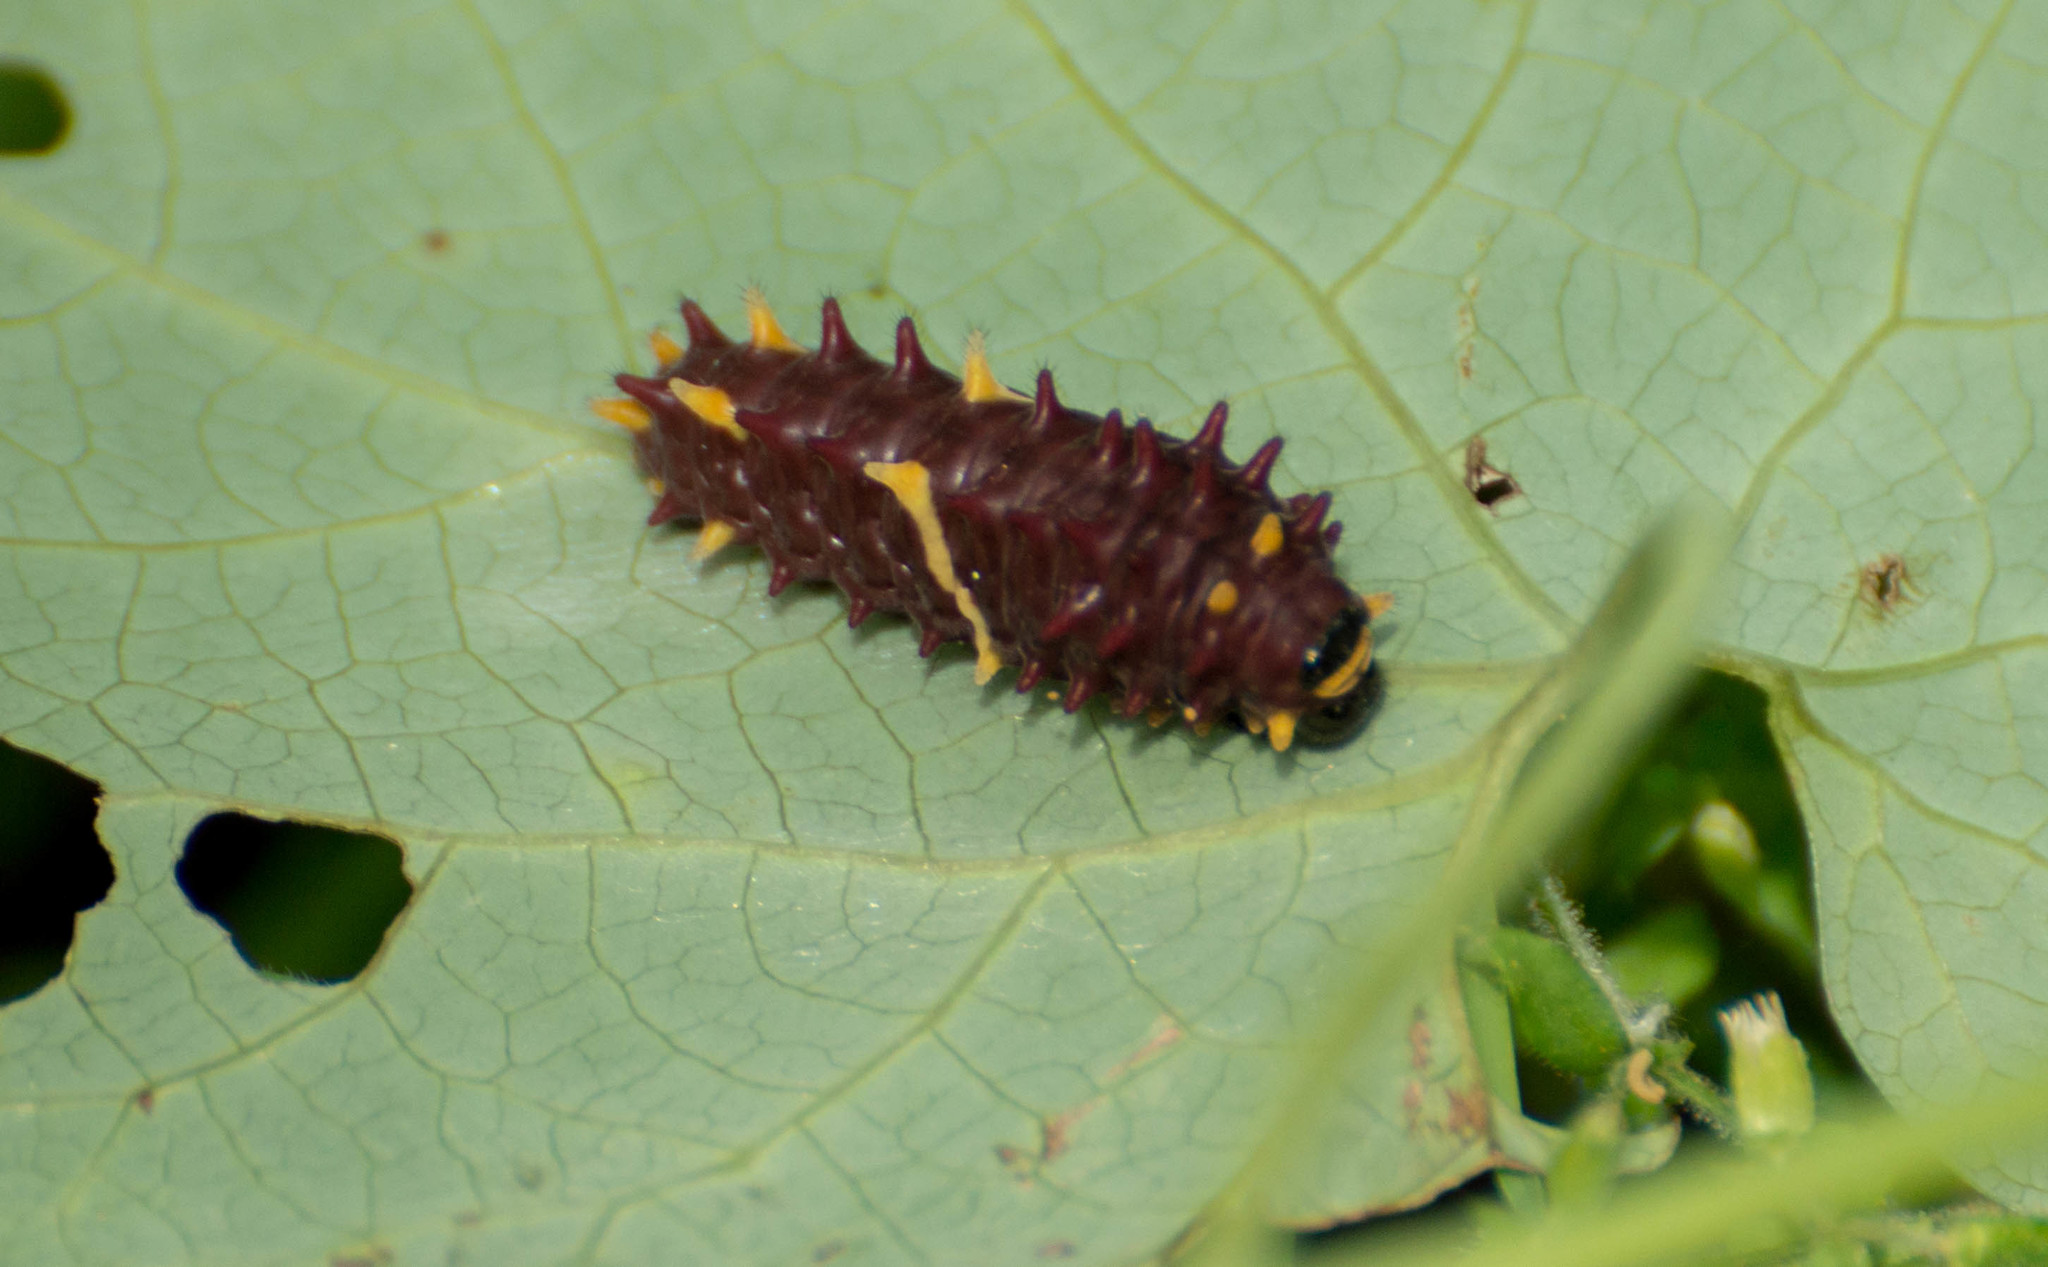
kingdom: Animalia
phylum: Arthropoda
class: Insecta
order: Lepidoptera
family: Papilionidae
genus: Parides
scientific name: Parides bunichus
